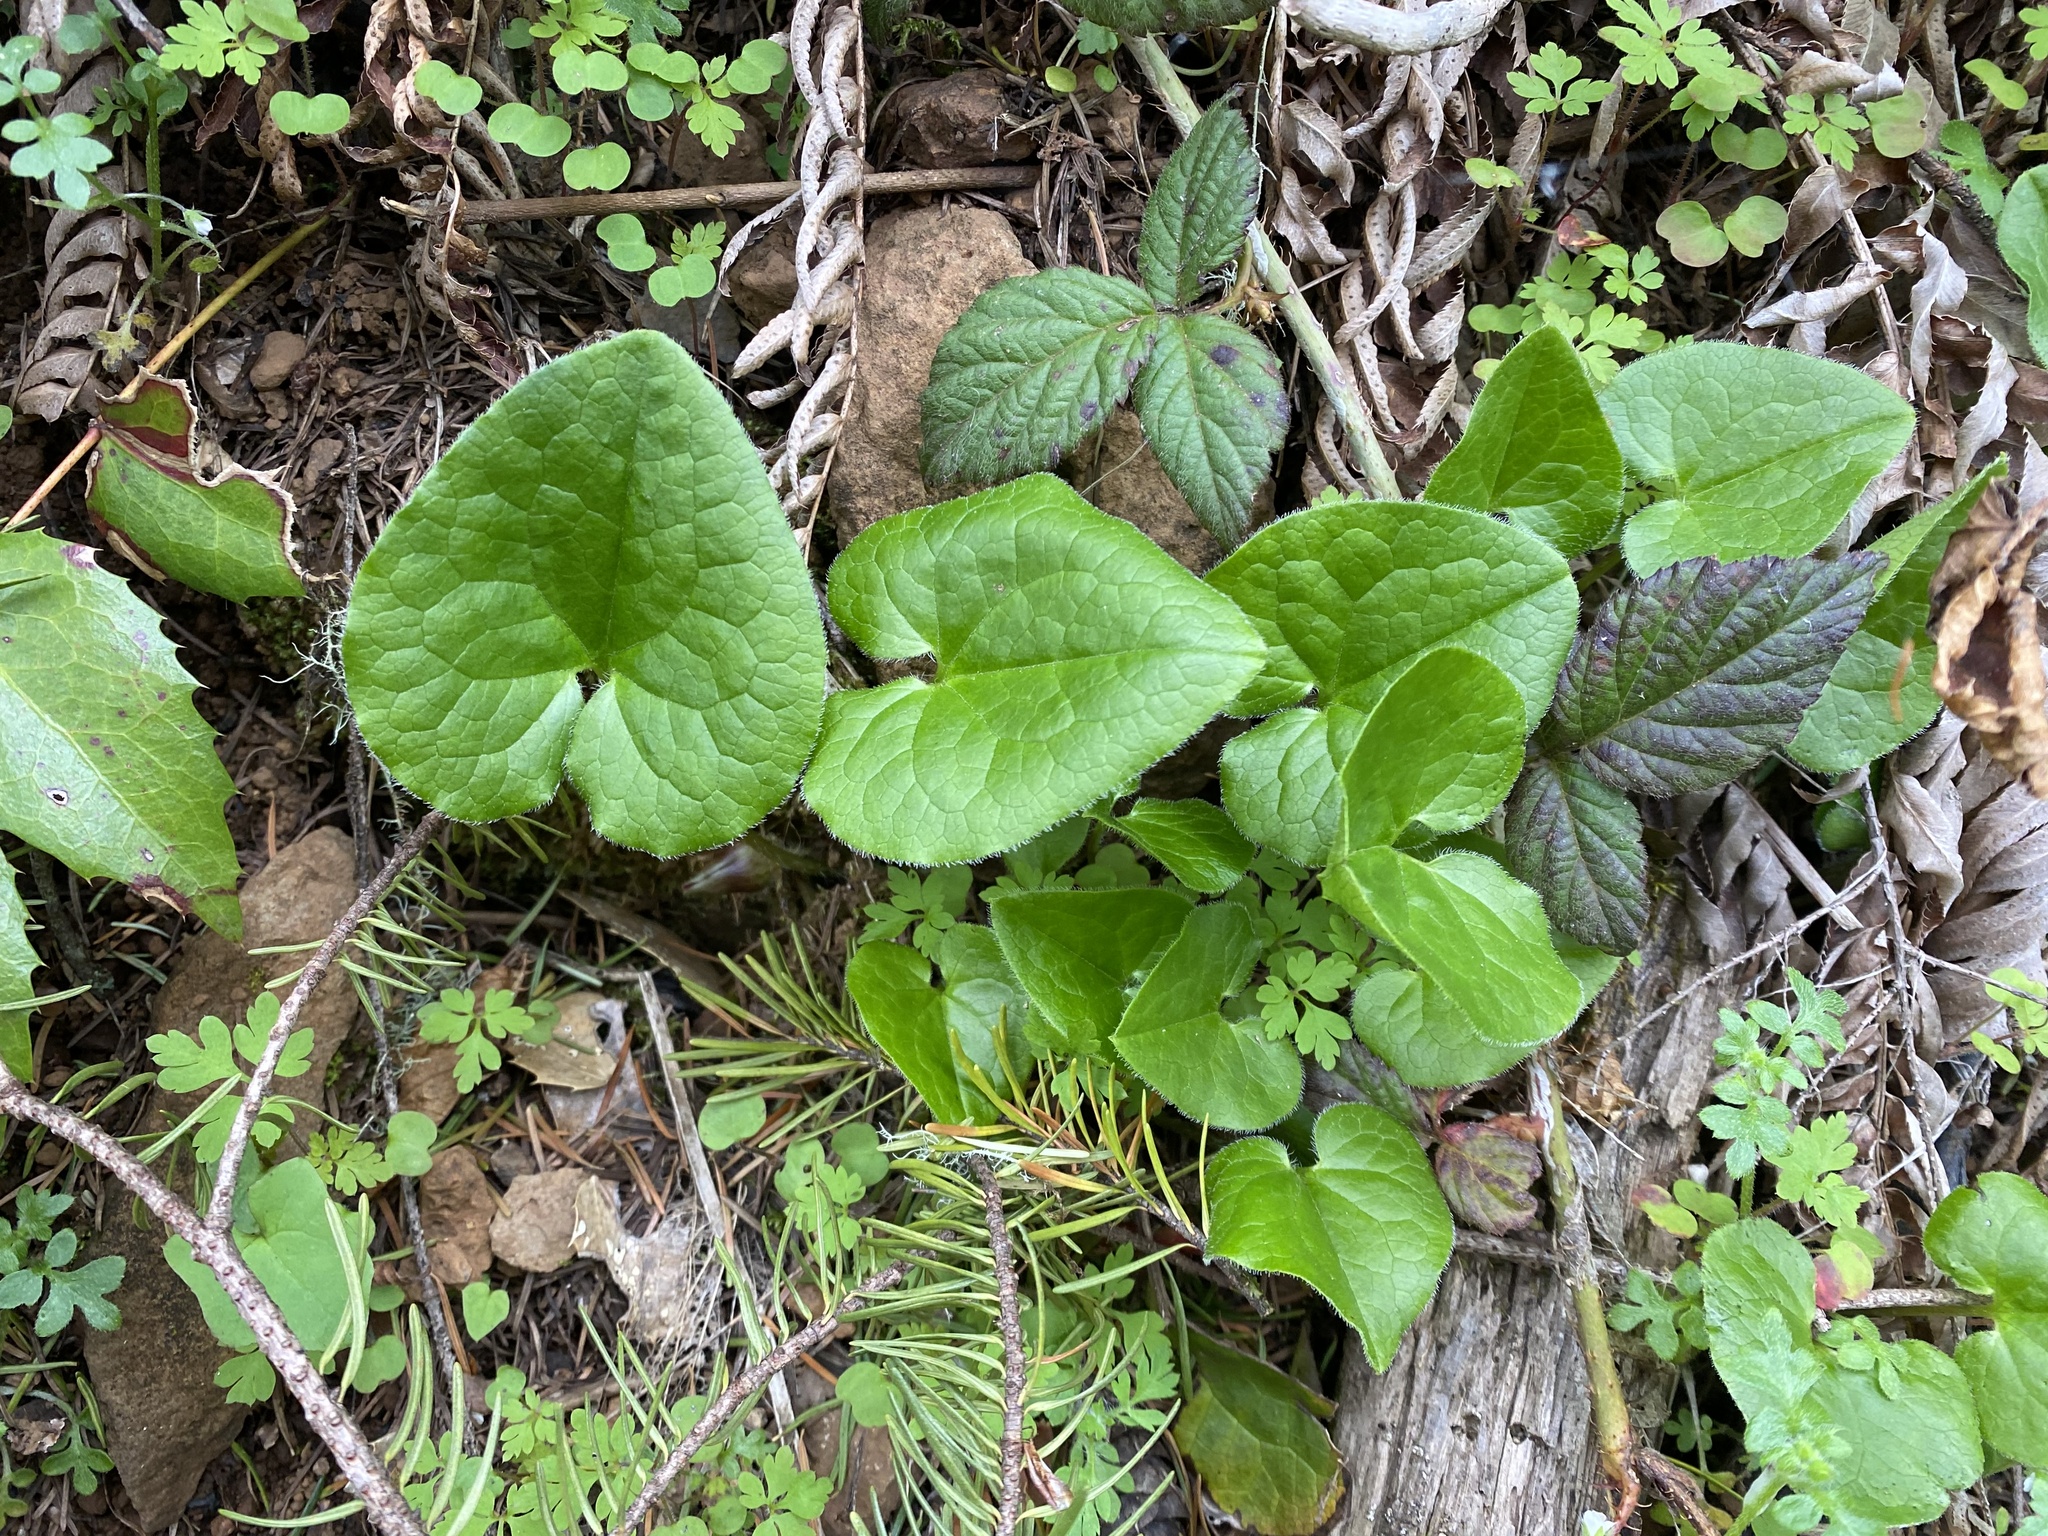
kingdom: Plantae
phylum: Tracheophyta
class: Magnoliopsida
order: Piperales
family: Aristolochiaceae
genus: Asarum
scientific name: Asarum caudatum
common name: Wild ginger
